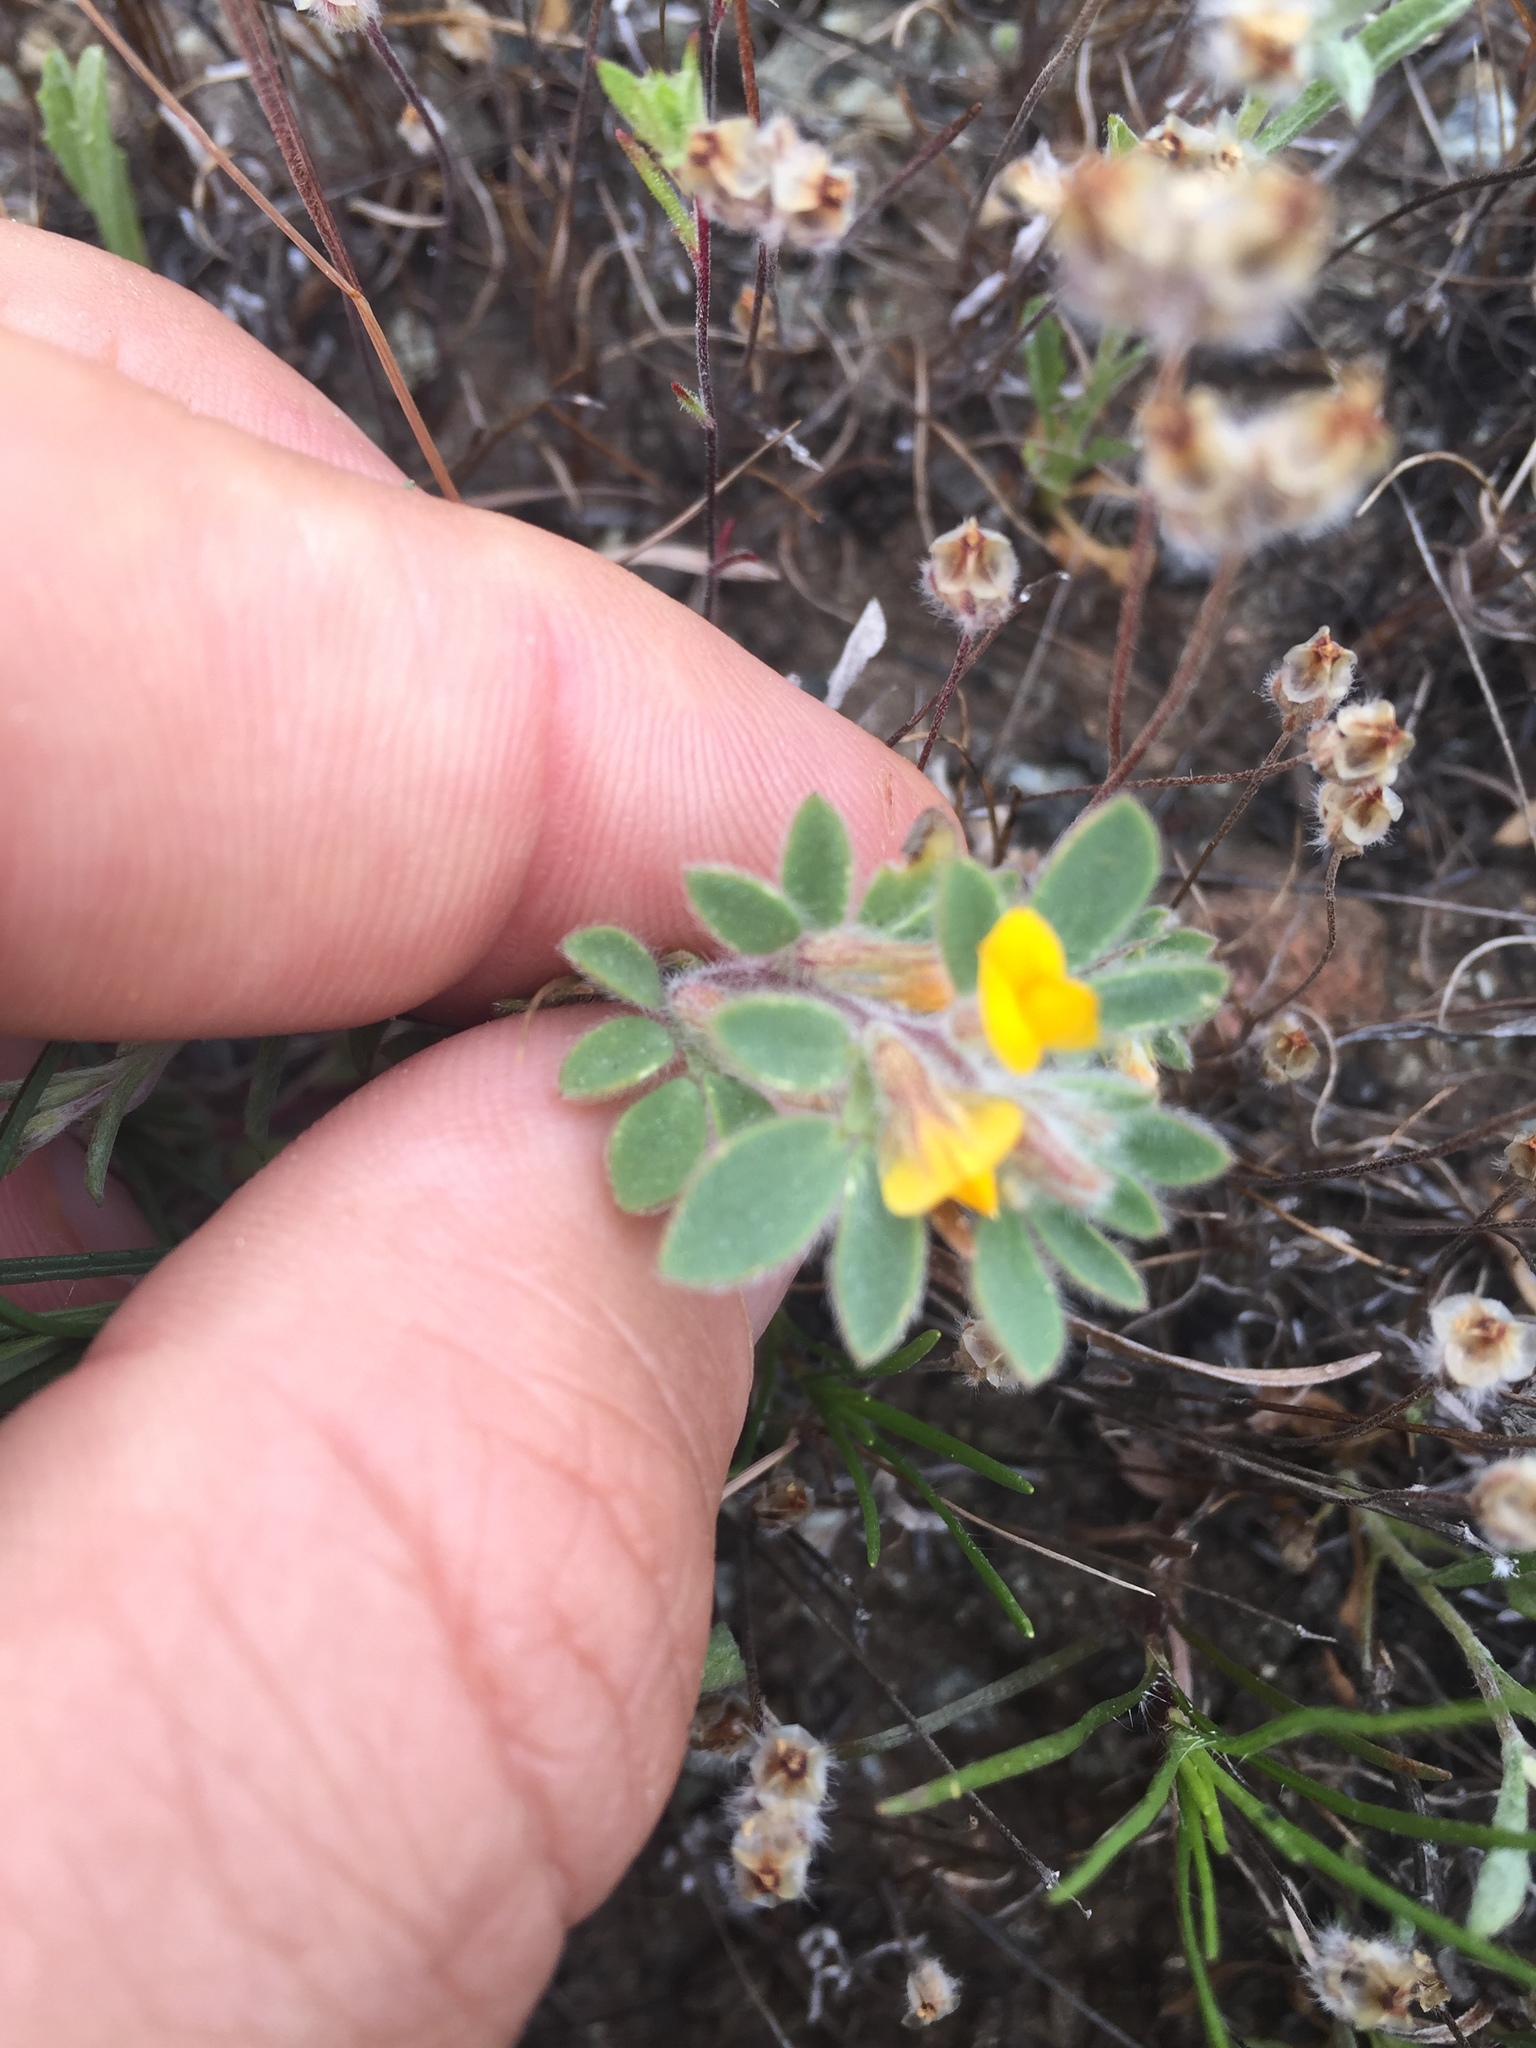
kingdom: Plantae
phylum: Tracheophyta
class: Magnoliopsida
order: Fabales
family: Fabaceae
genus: Acmispon
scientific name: Acmispon brachycarpus
